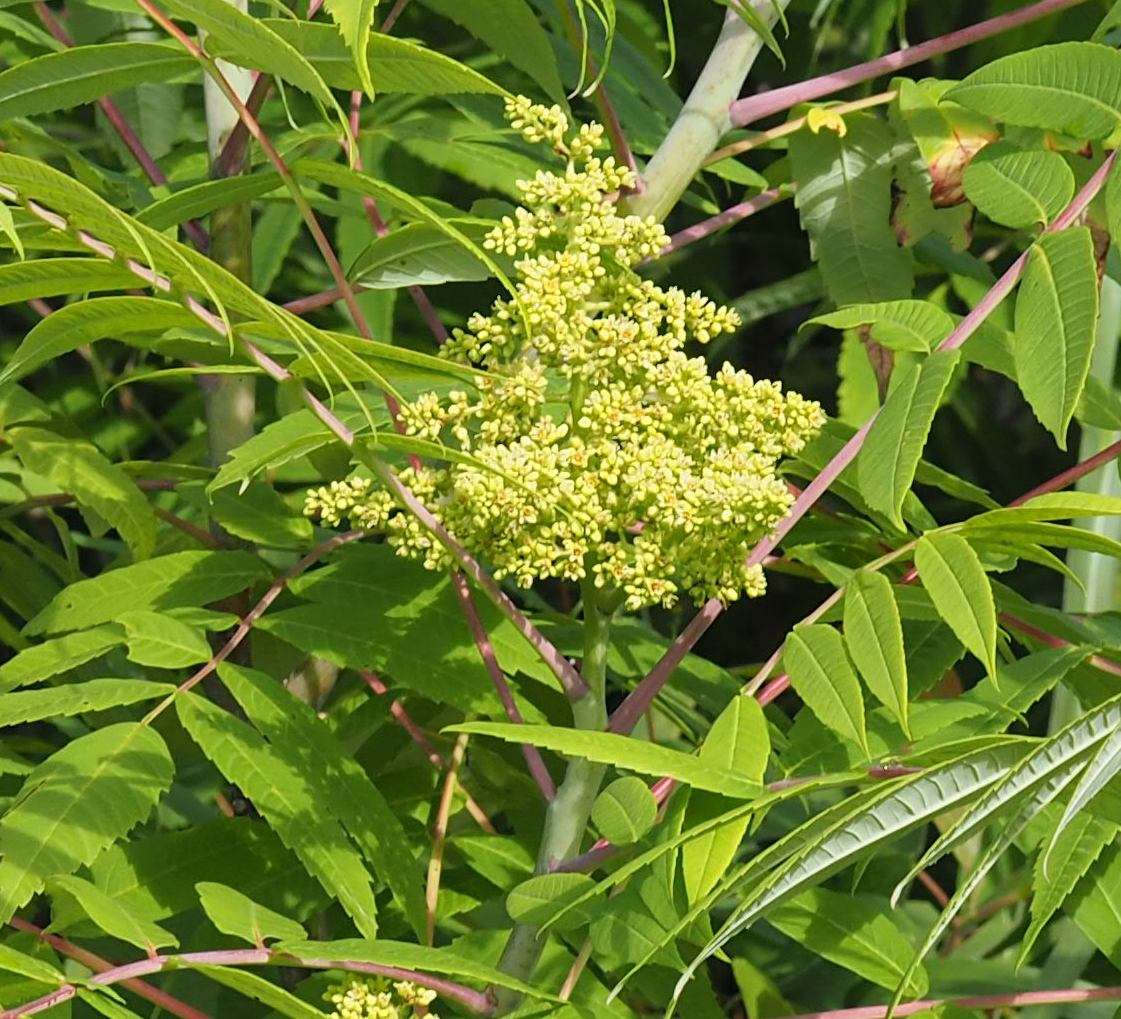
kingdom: Plantae
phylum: Tracheophyta
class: Magnoliopsida
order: Sapindales
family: Anacardiaceae
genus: Rhus
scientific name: Rhus glabra
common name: Scarlet sumac
